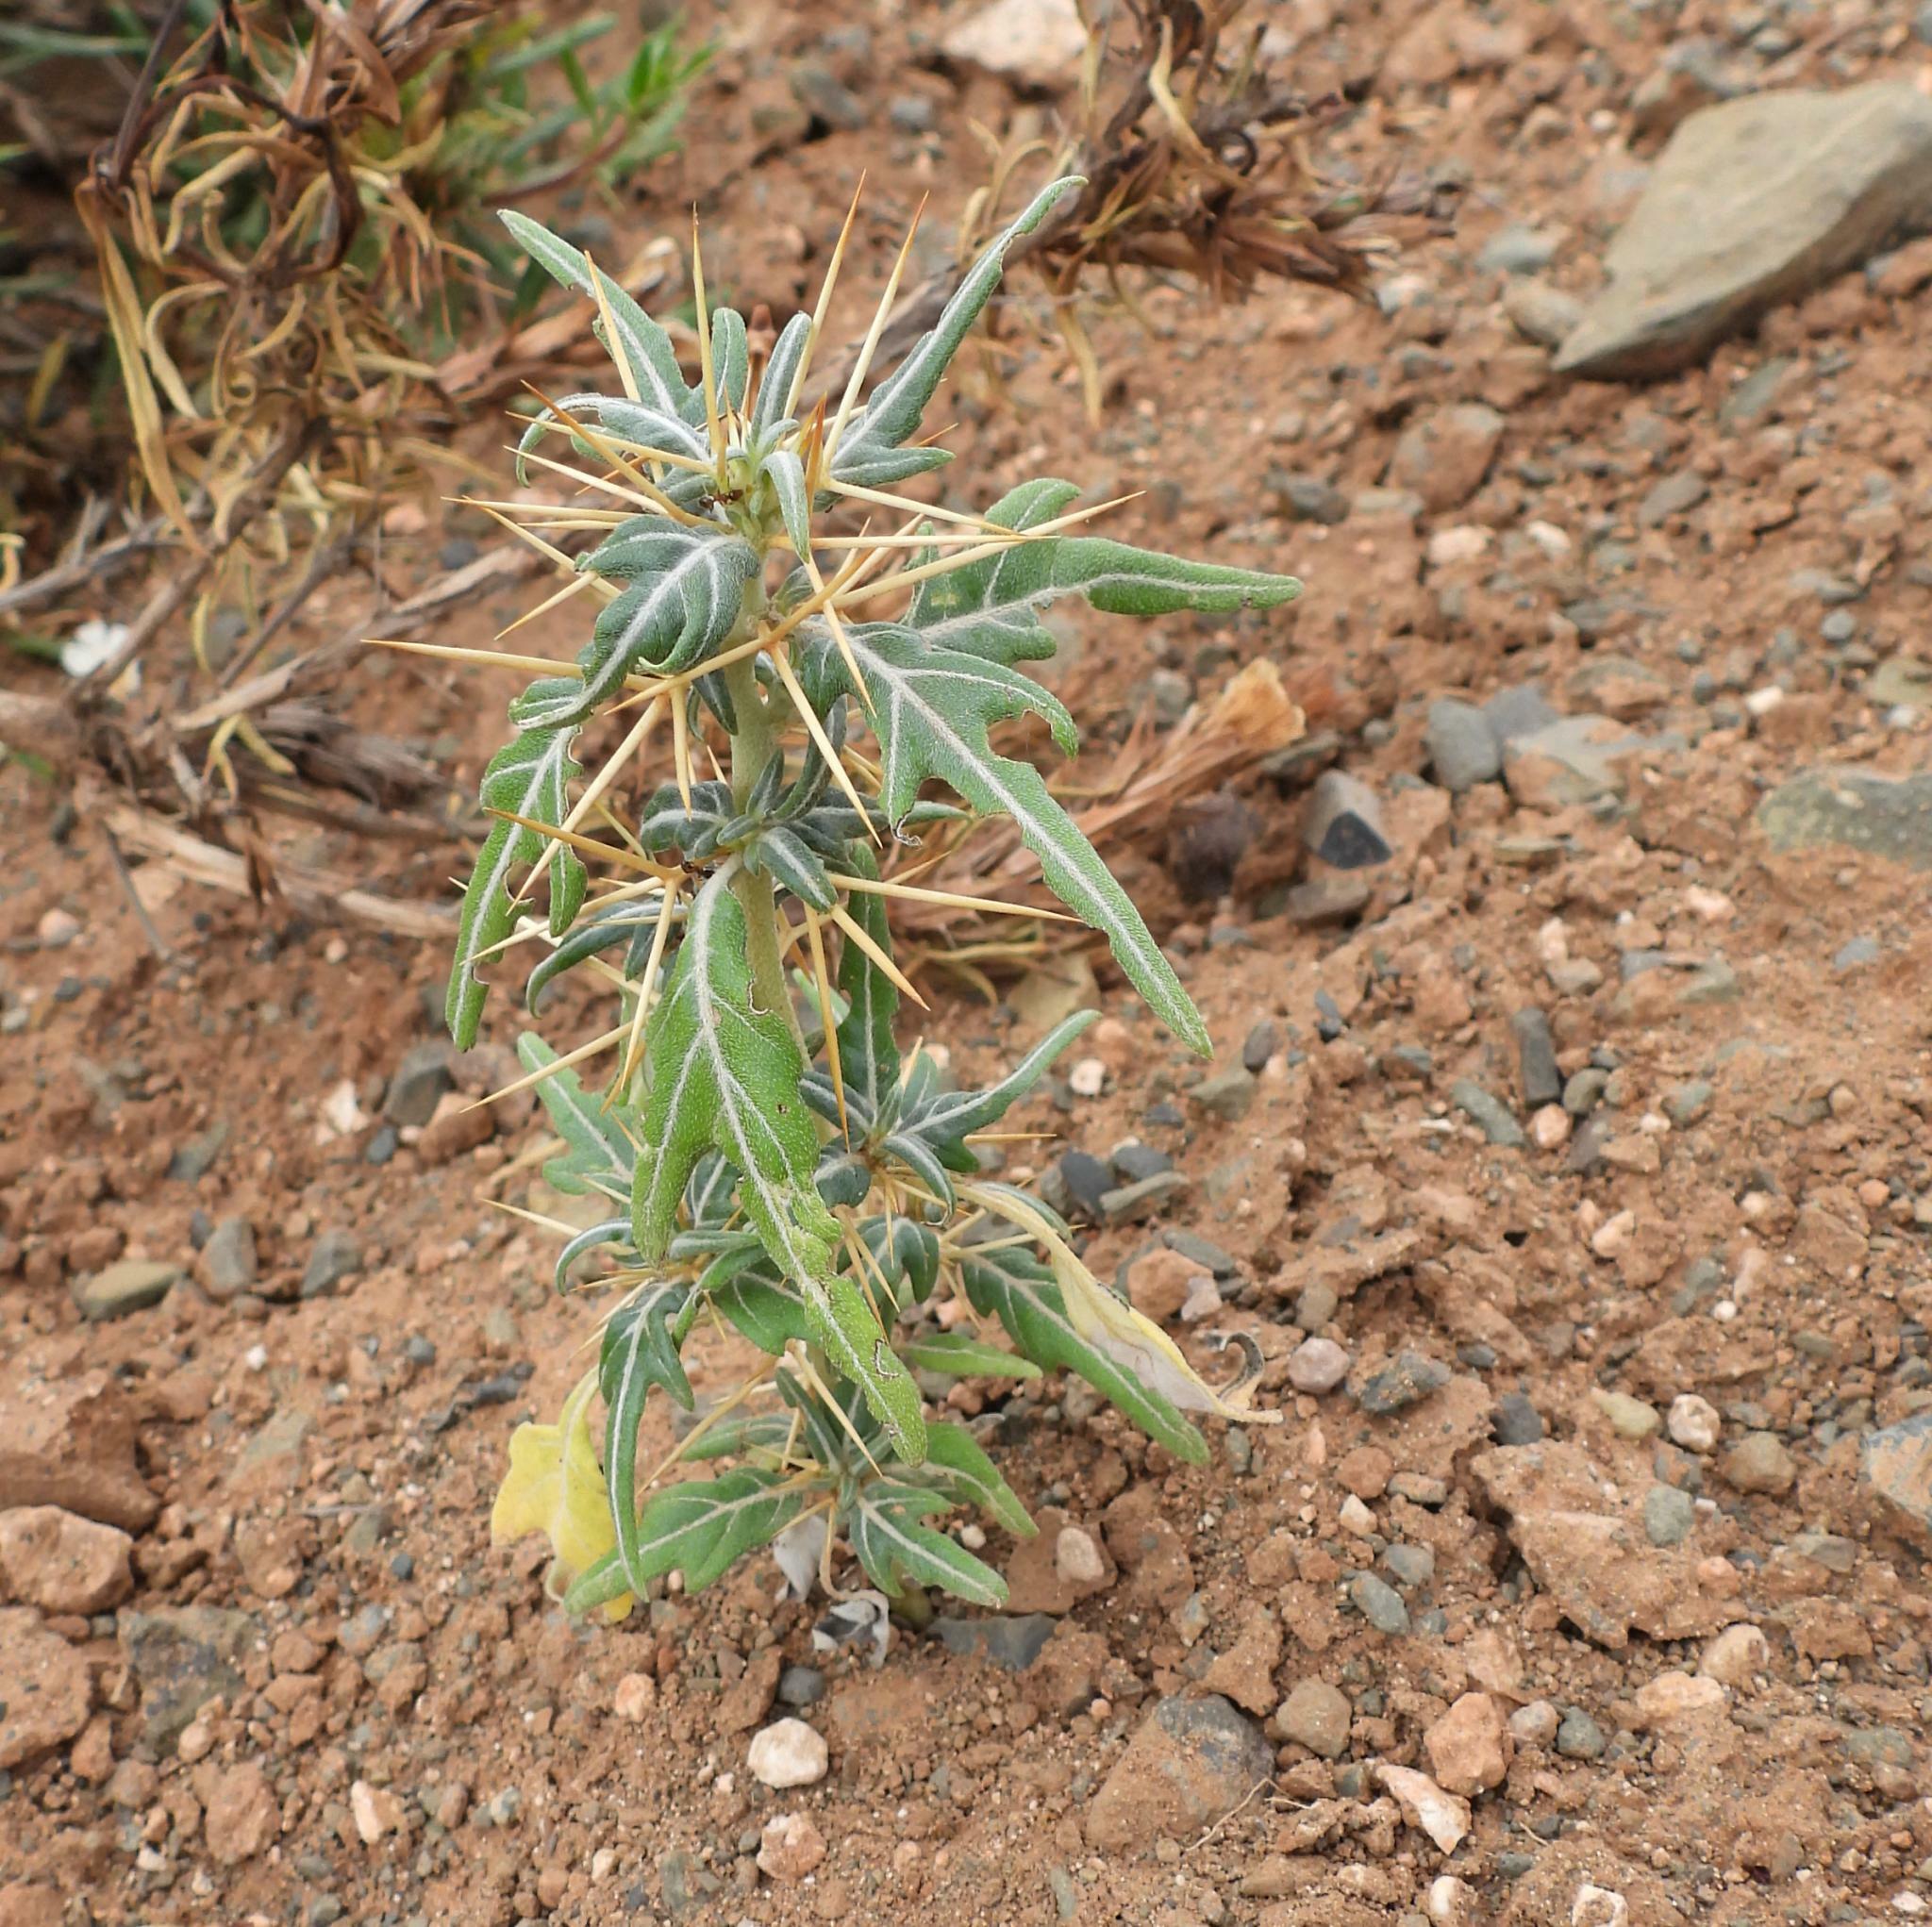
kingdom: Plantae
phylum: Tracheophyta
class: Magnoliopsida
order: Asterales
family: Asteraceae
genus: Xanthium
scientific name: Xanthium spinosum
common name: Spiny cocklebur
